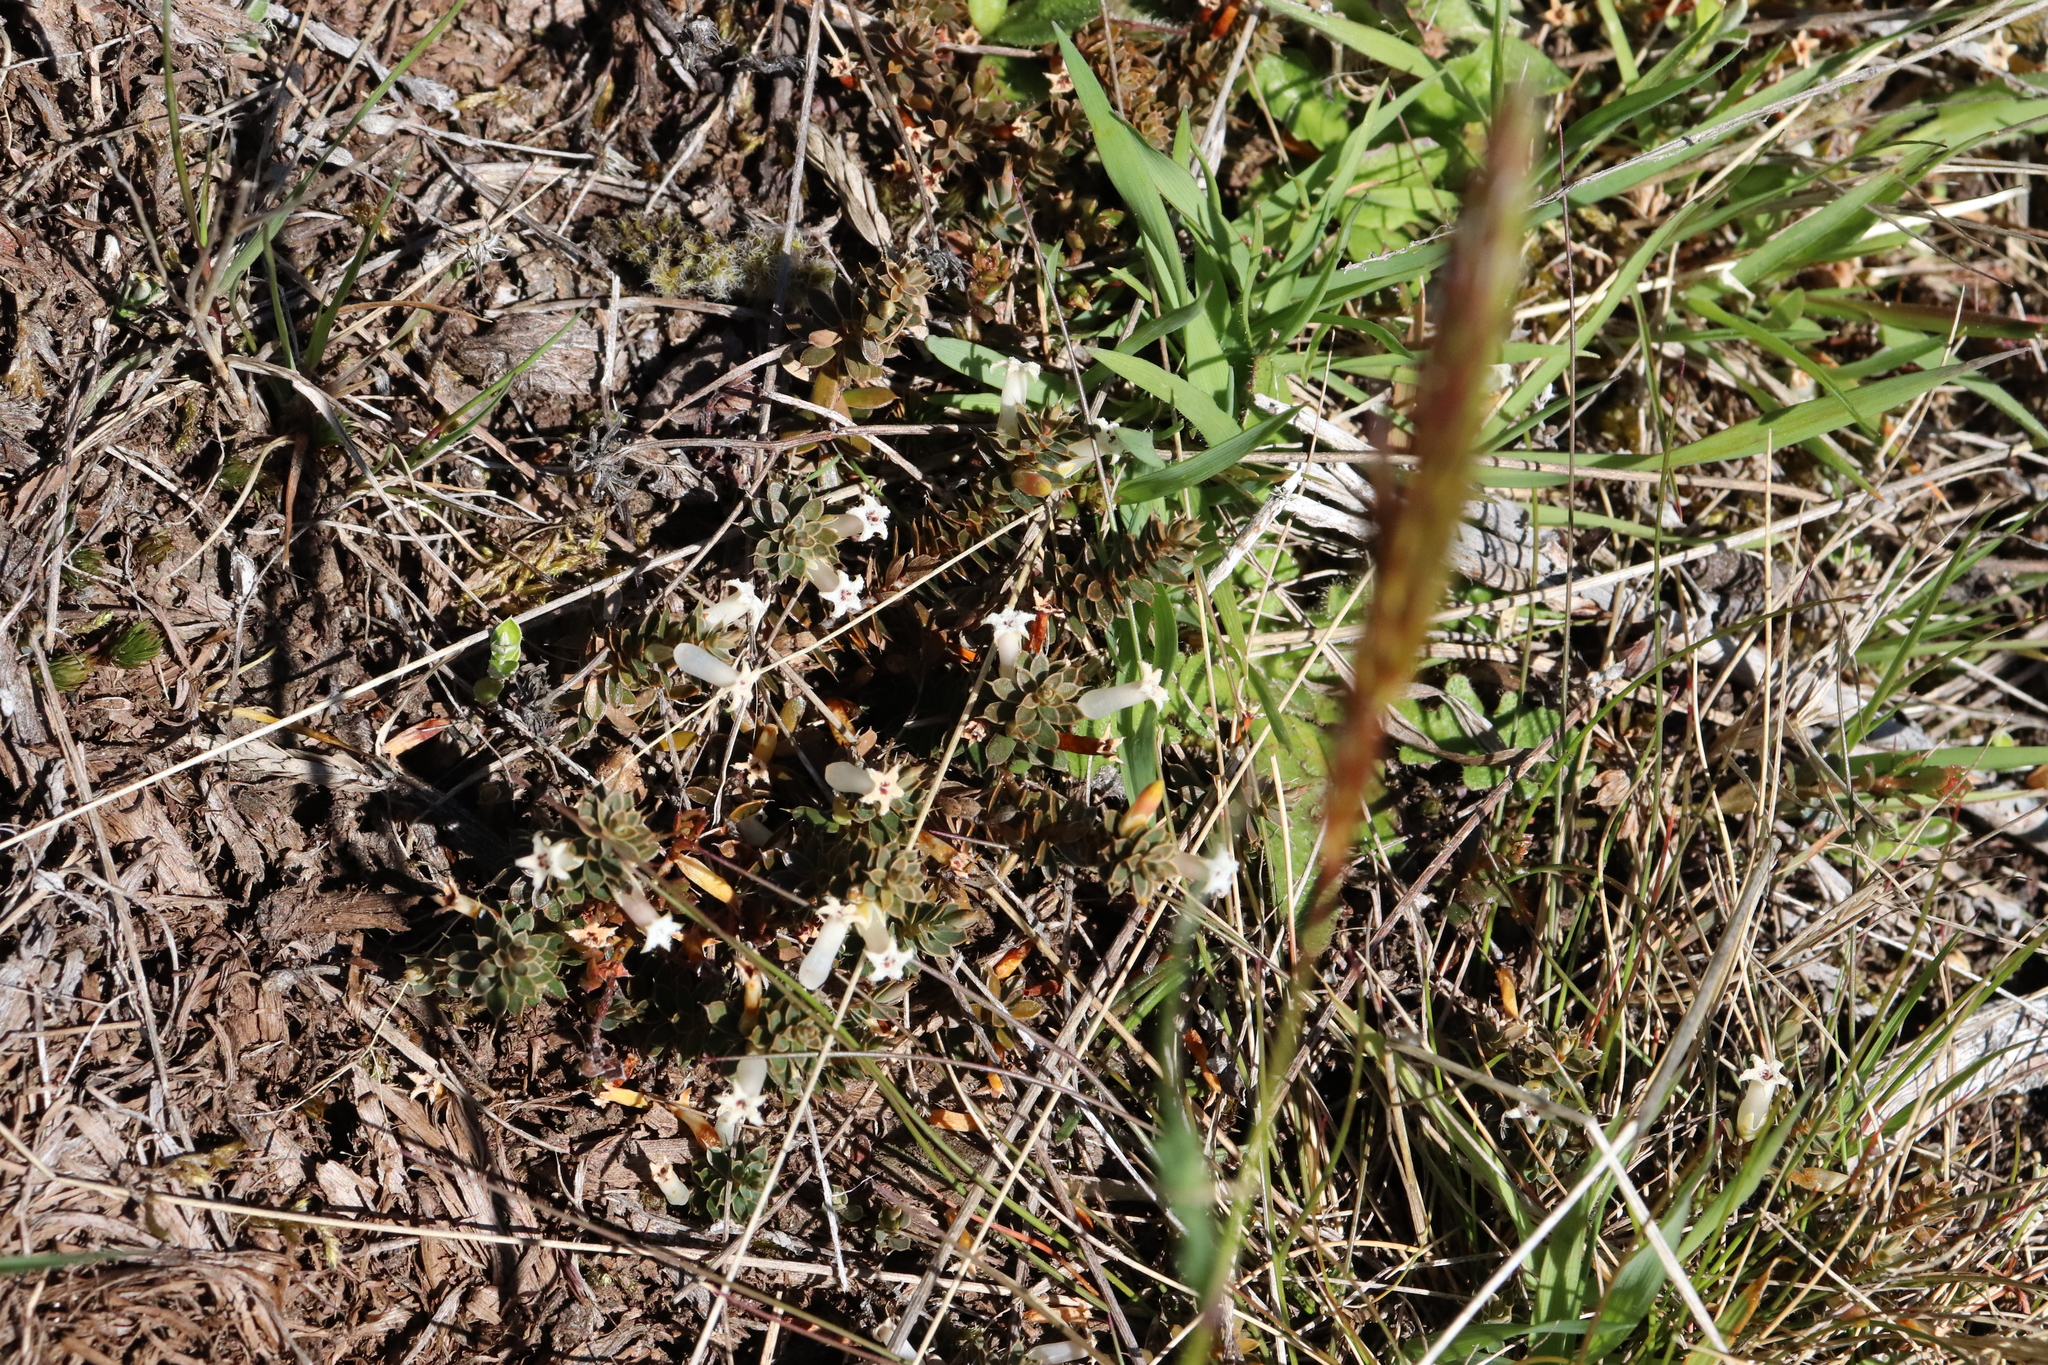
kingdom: Plantae
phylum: Tracheophyta
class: Magnoliopsida
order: Ericales
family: Ericaceae
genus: Styphelia
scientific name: Styphelia nesophila
